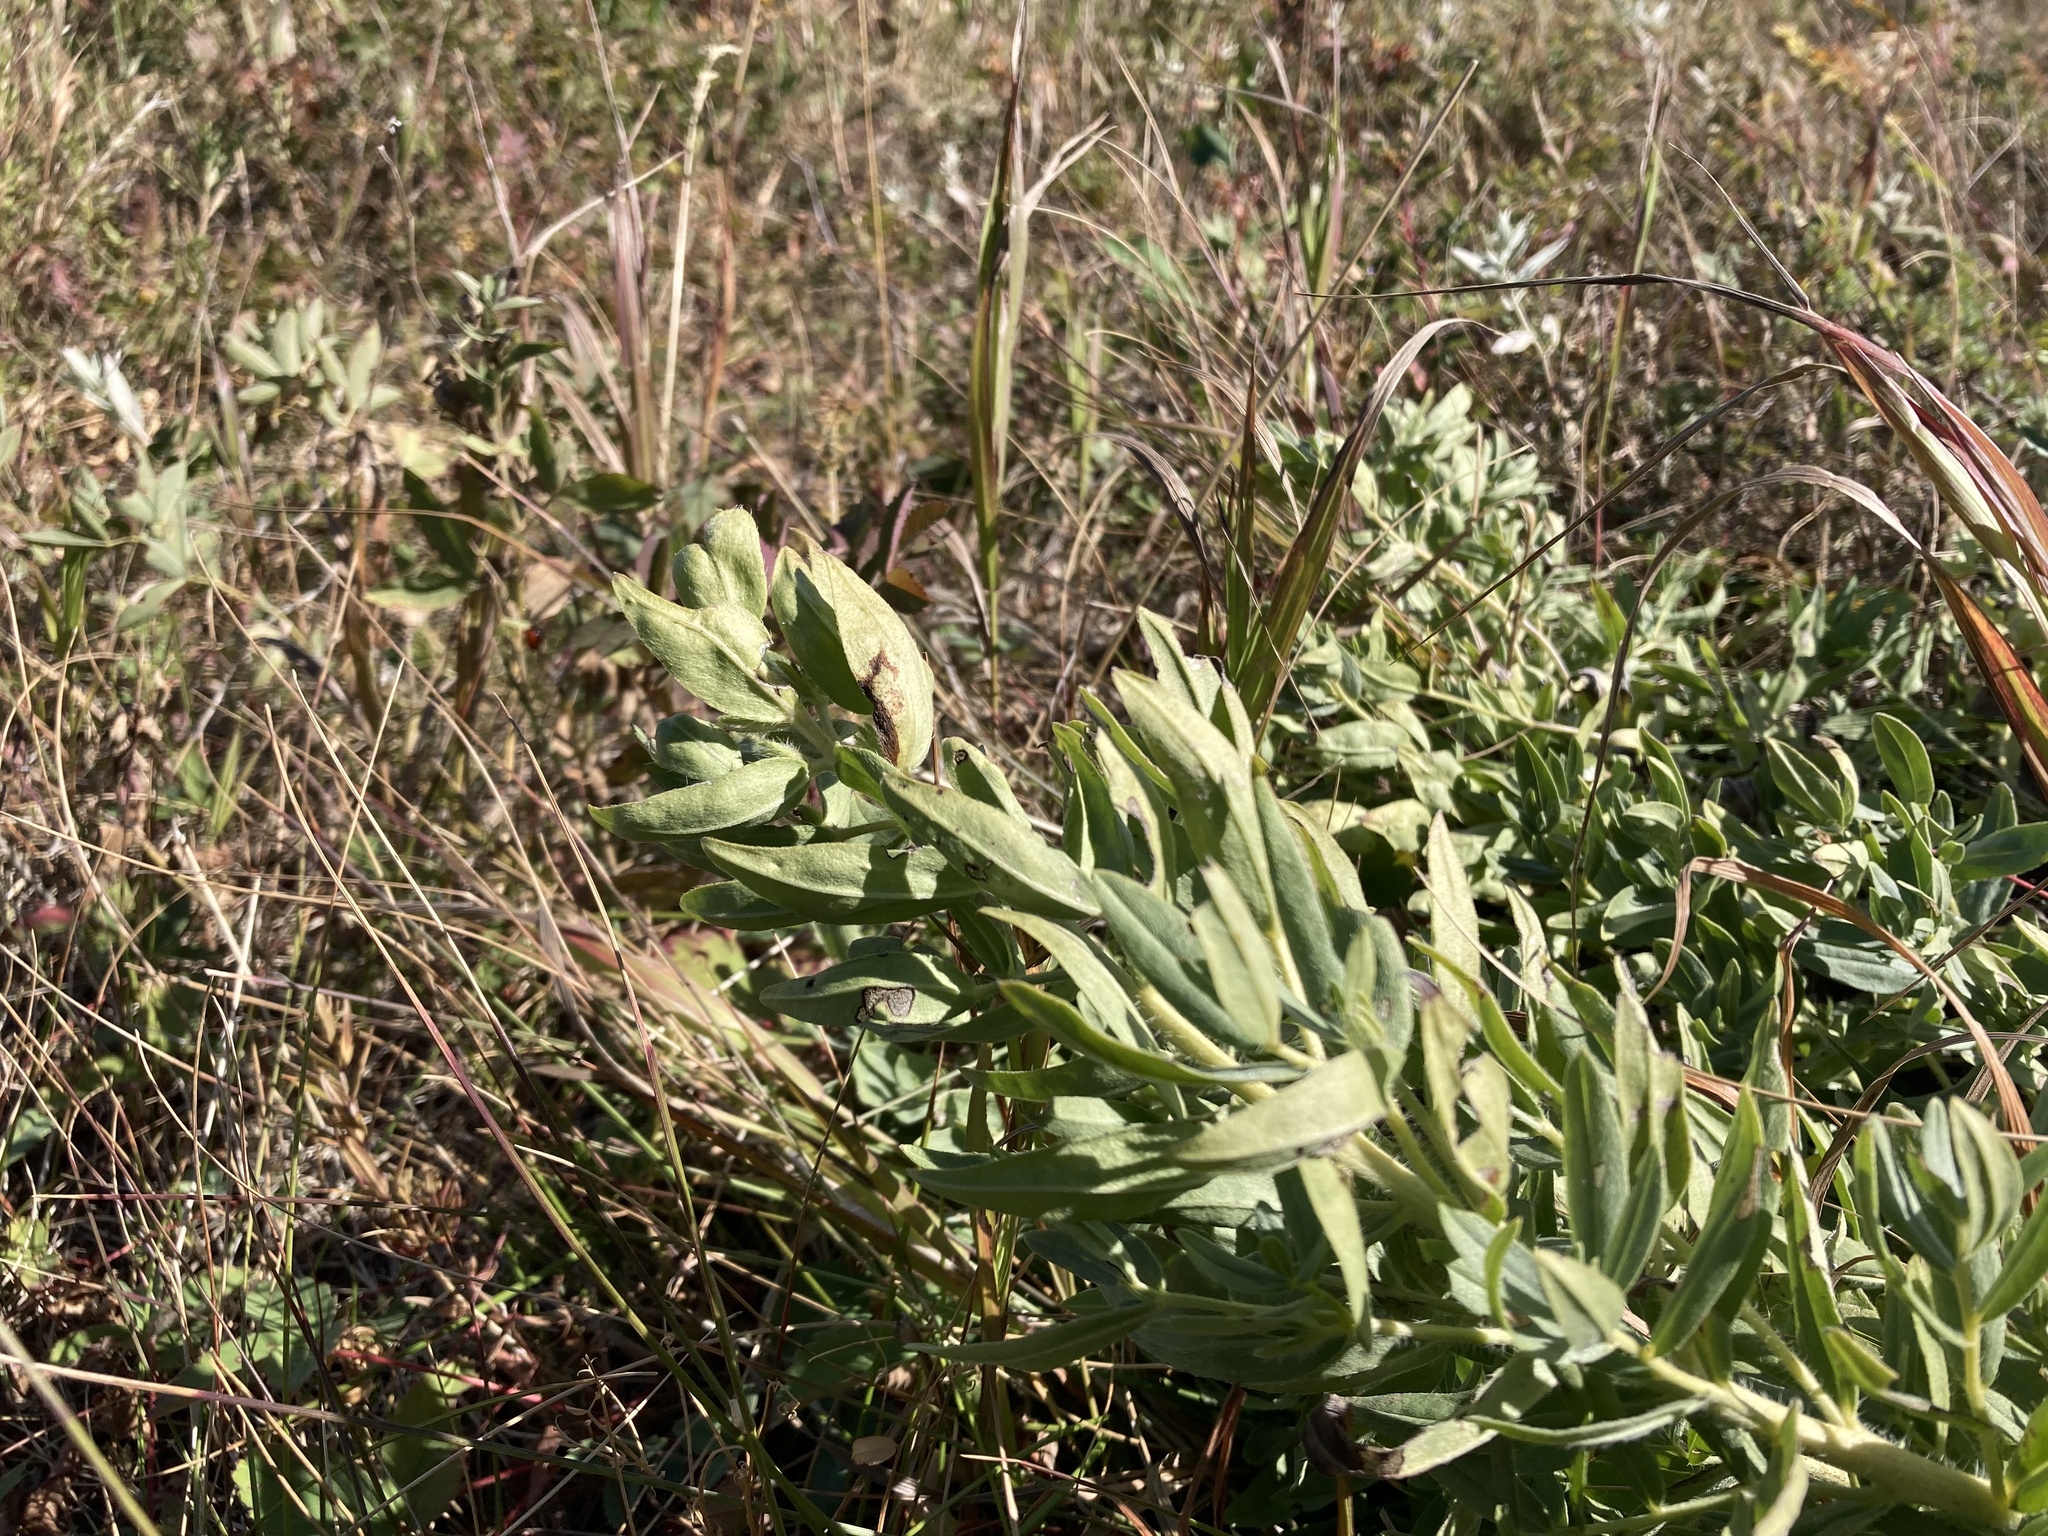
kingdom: Plantae
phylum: Tracheophyta
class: Magnoliopsida
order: Boraginales
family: Boraginaceae
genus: Lithospermum
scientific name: Lithospermum ruderale
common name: Western gromwell
